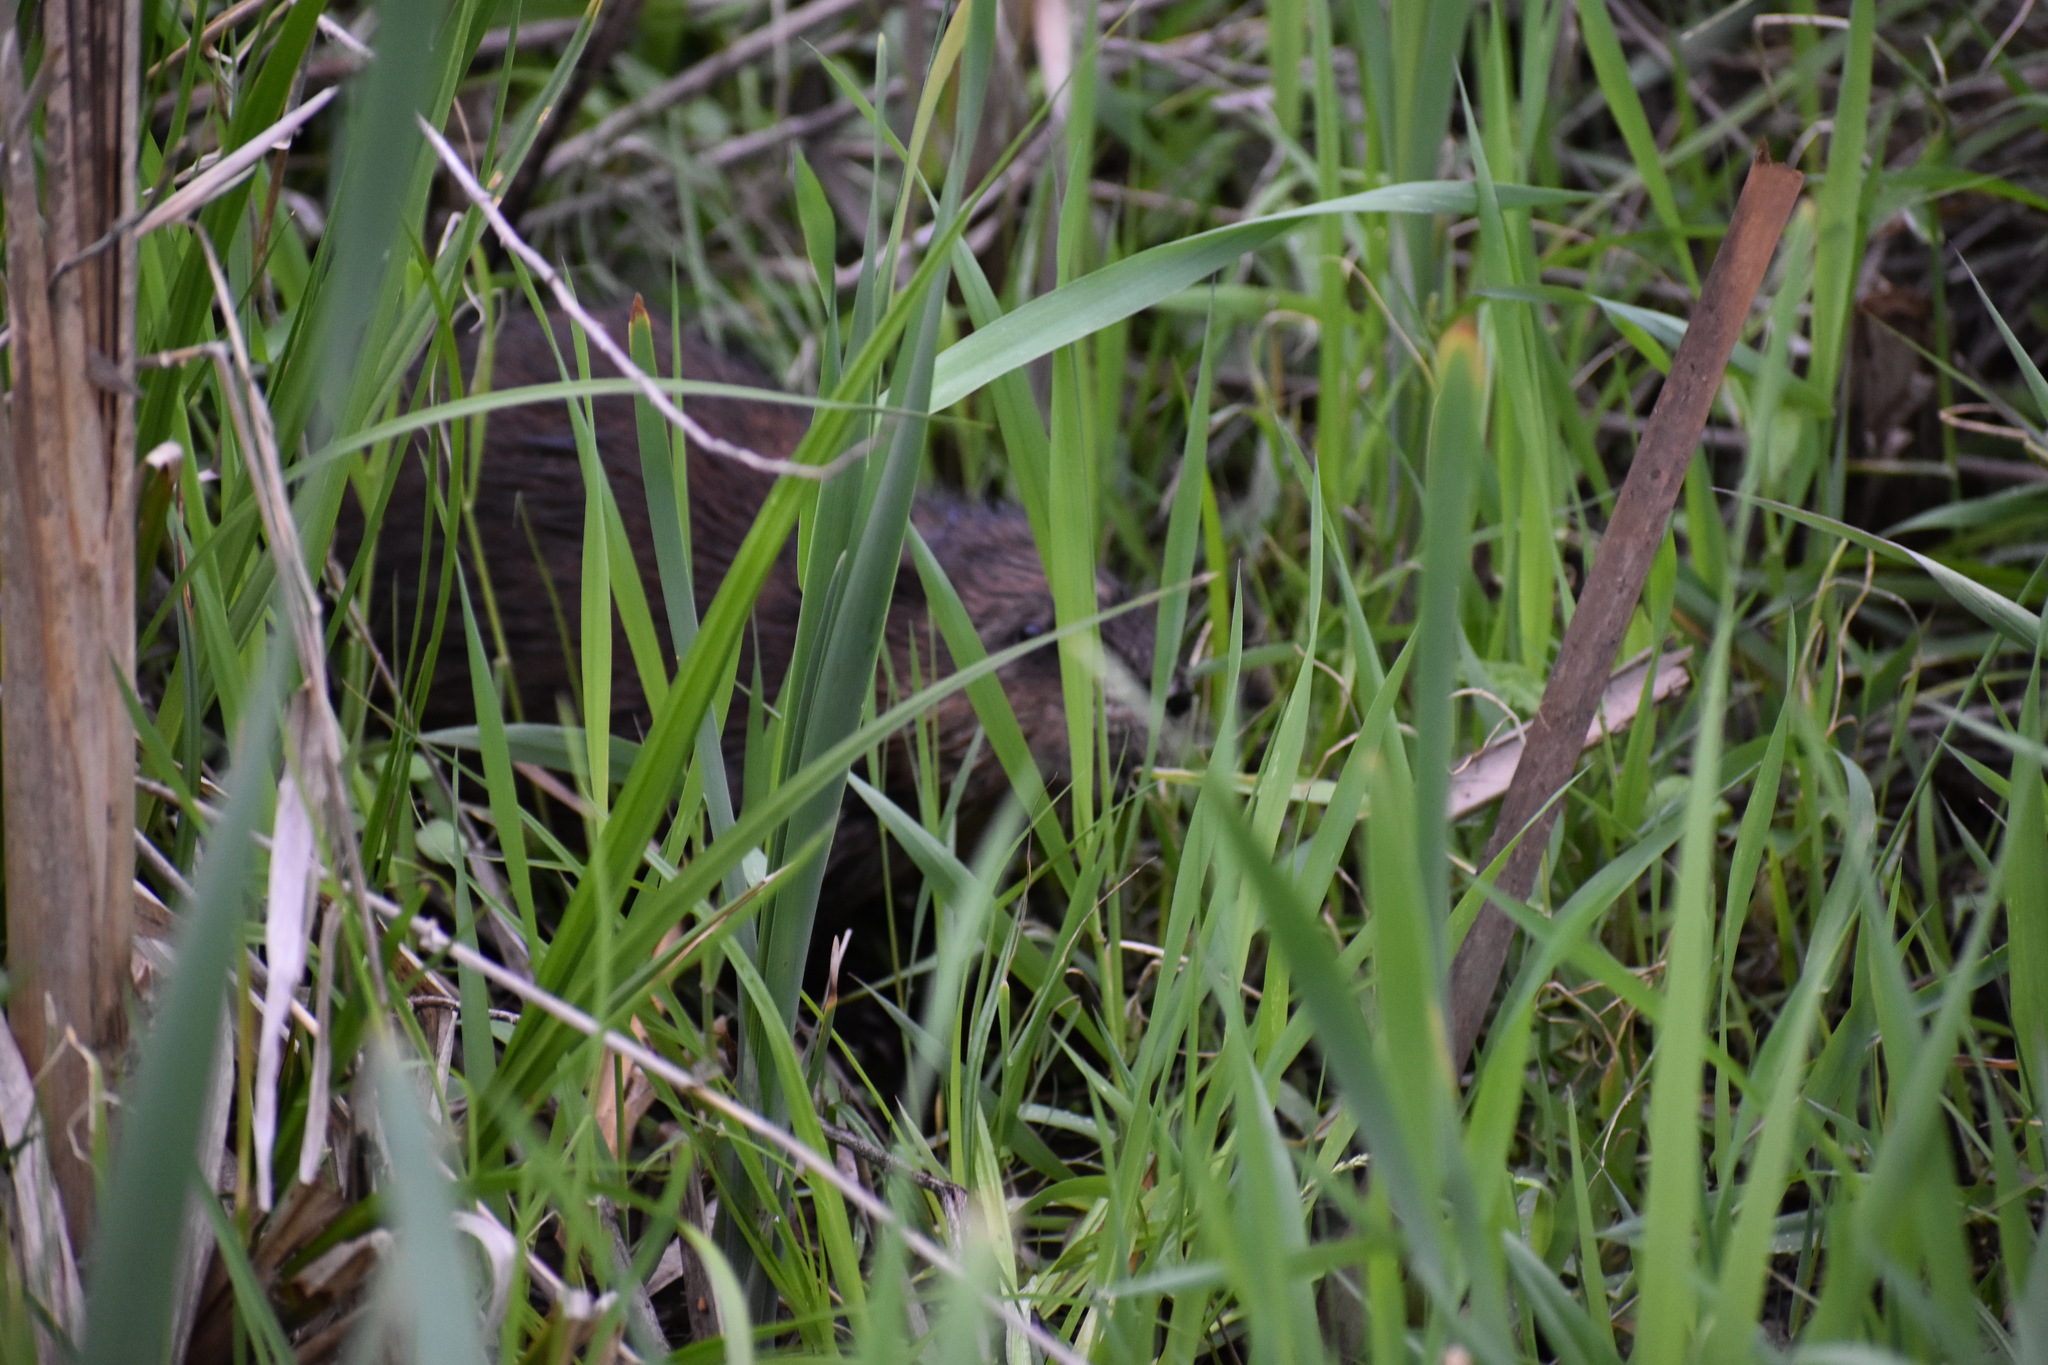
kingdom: Animalia
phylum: Chordata
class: Mammalia
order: Rodentia
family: Cricetidae
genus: Ondatra
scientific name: Ondatra zibethicus
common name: Muskrat
